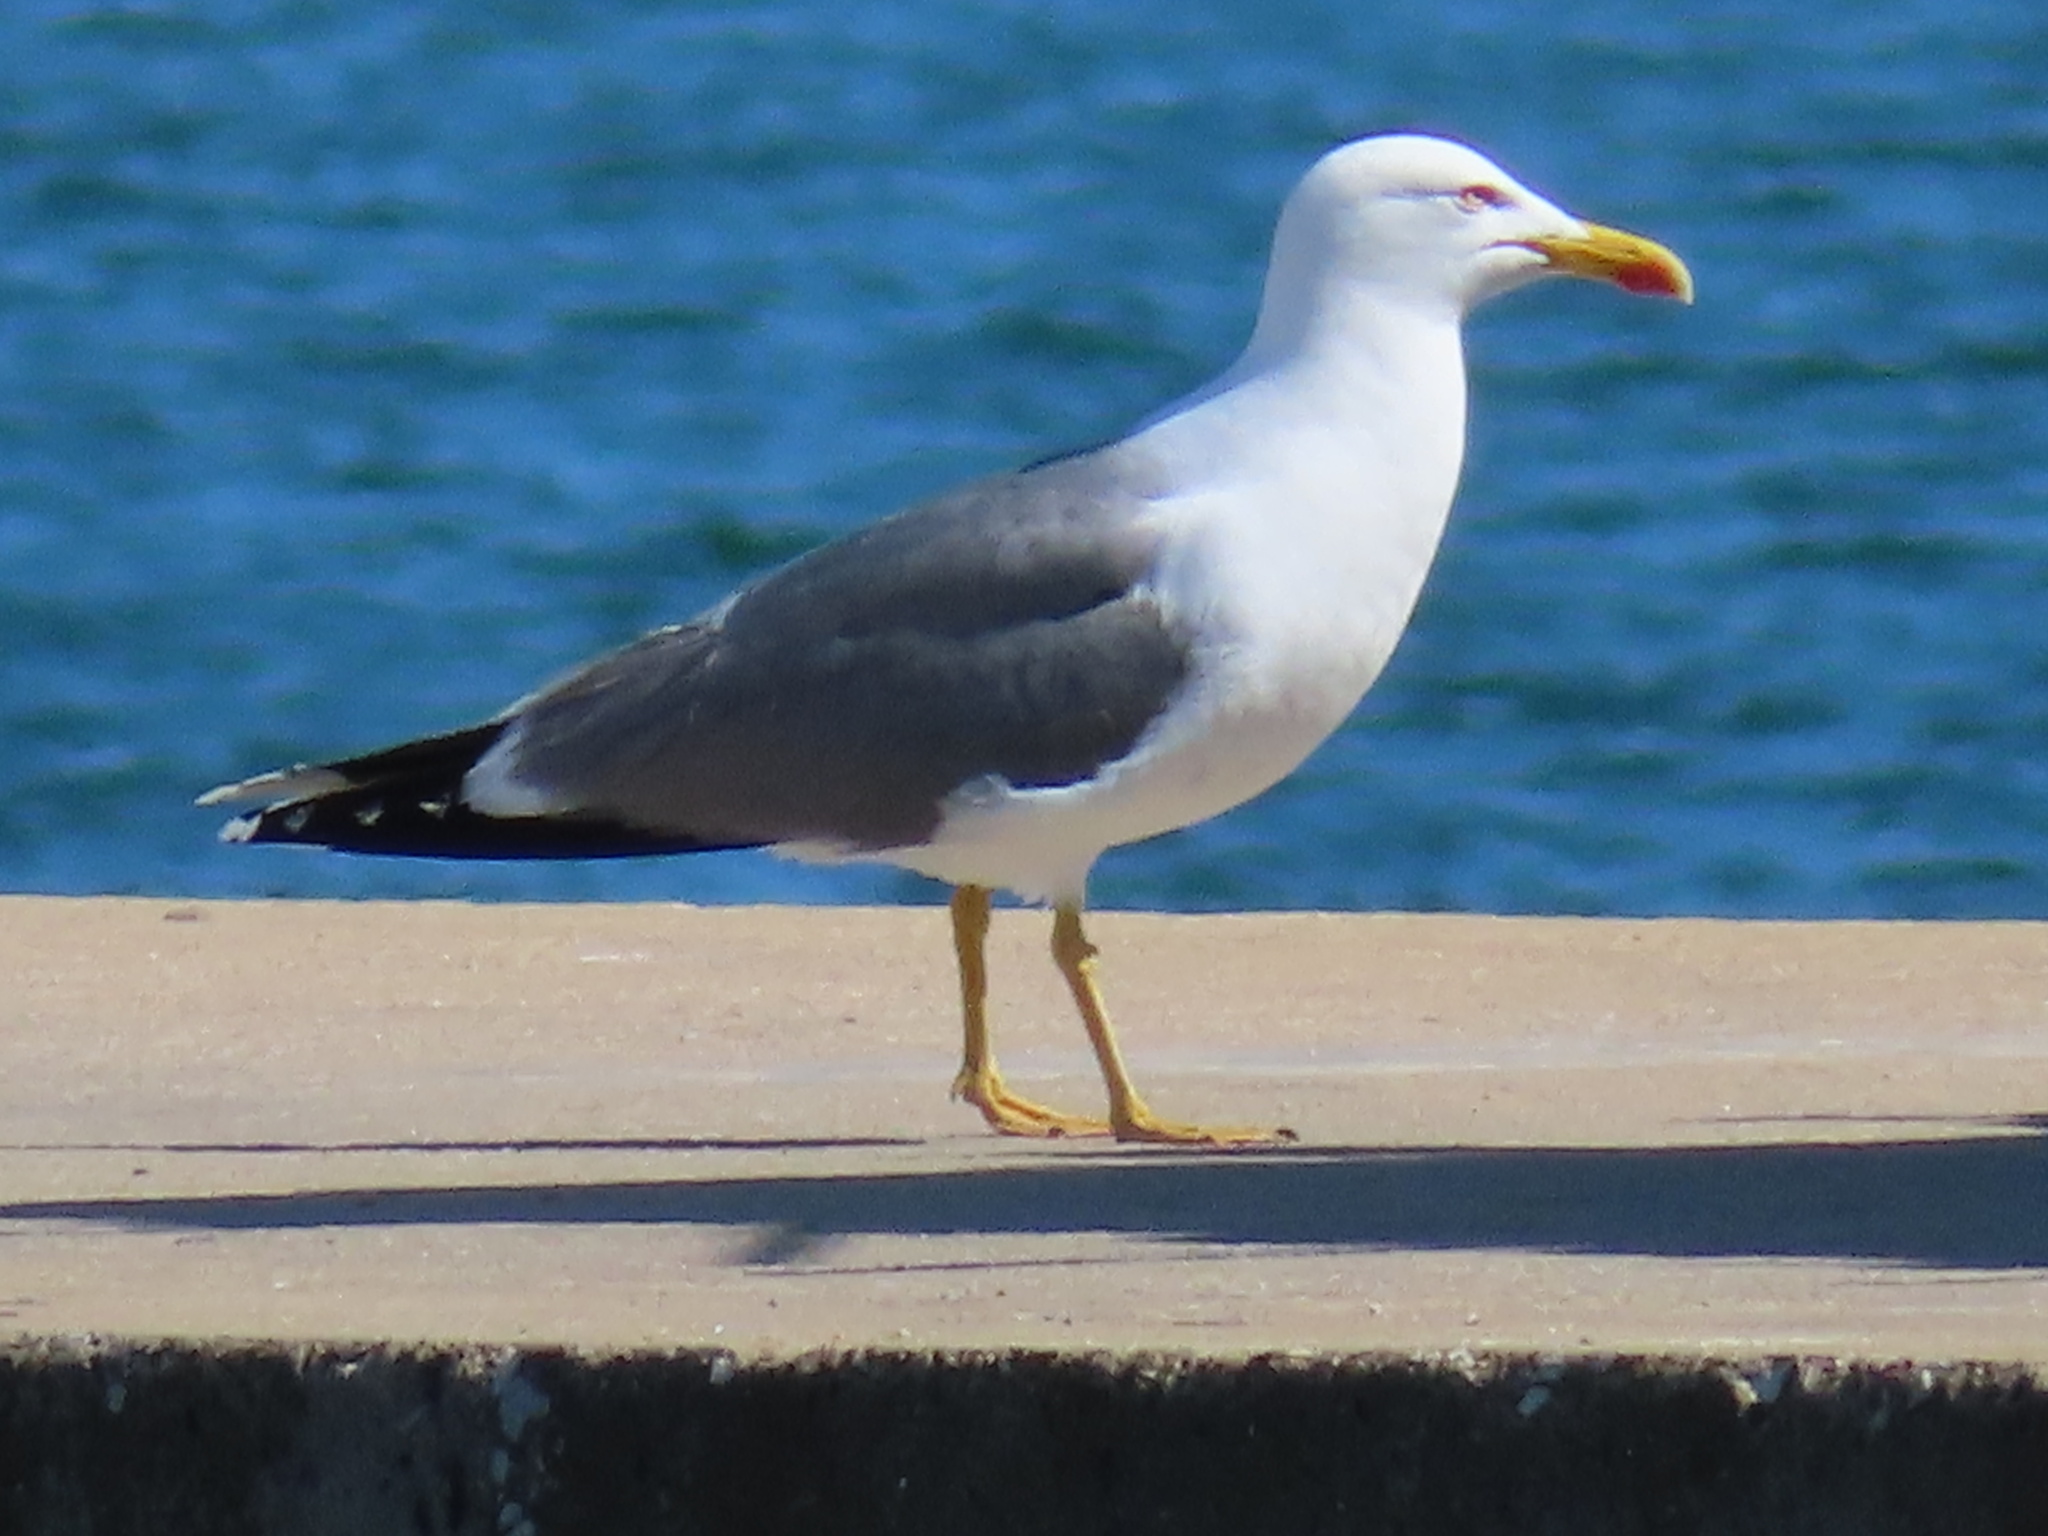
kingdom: Animalia
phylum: Chordata
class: Aves
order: Charadriiformes
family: Laridae
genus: Larus
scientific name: Larus fuscus
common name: Lesser black-backed gull
